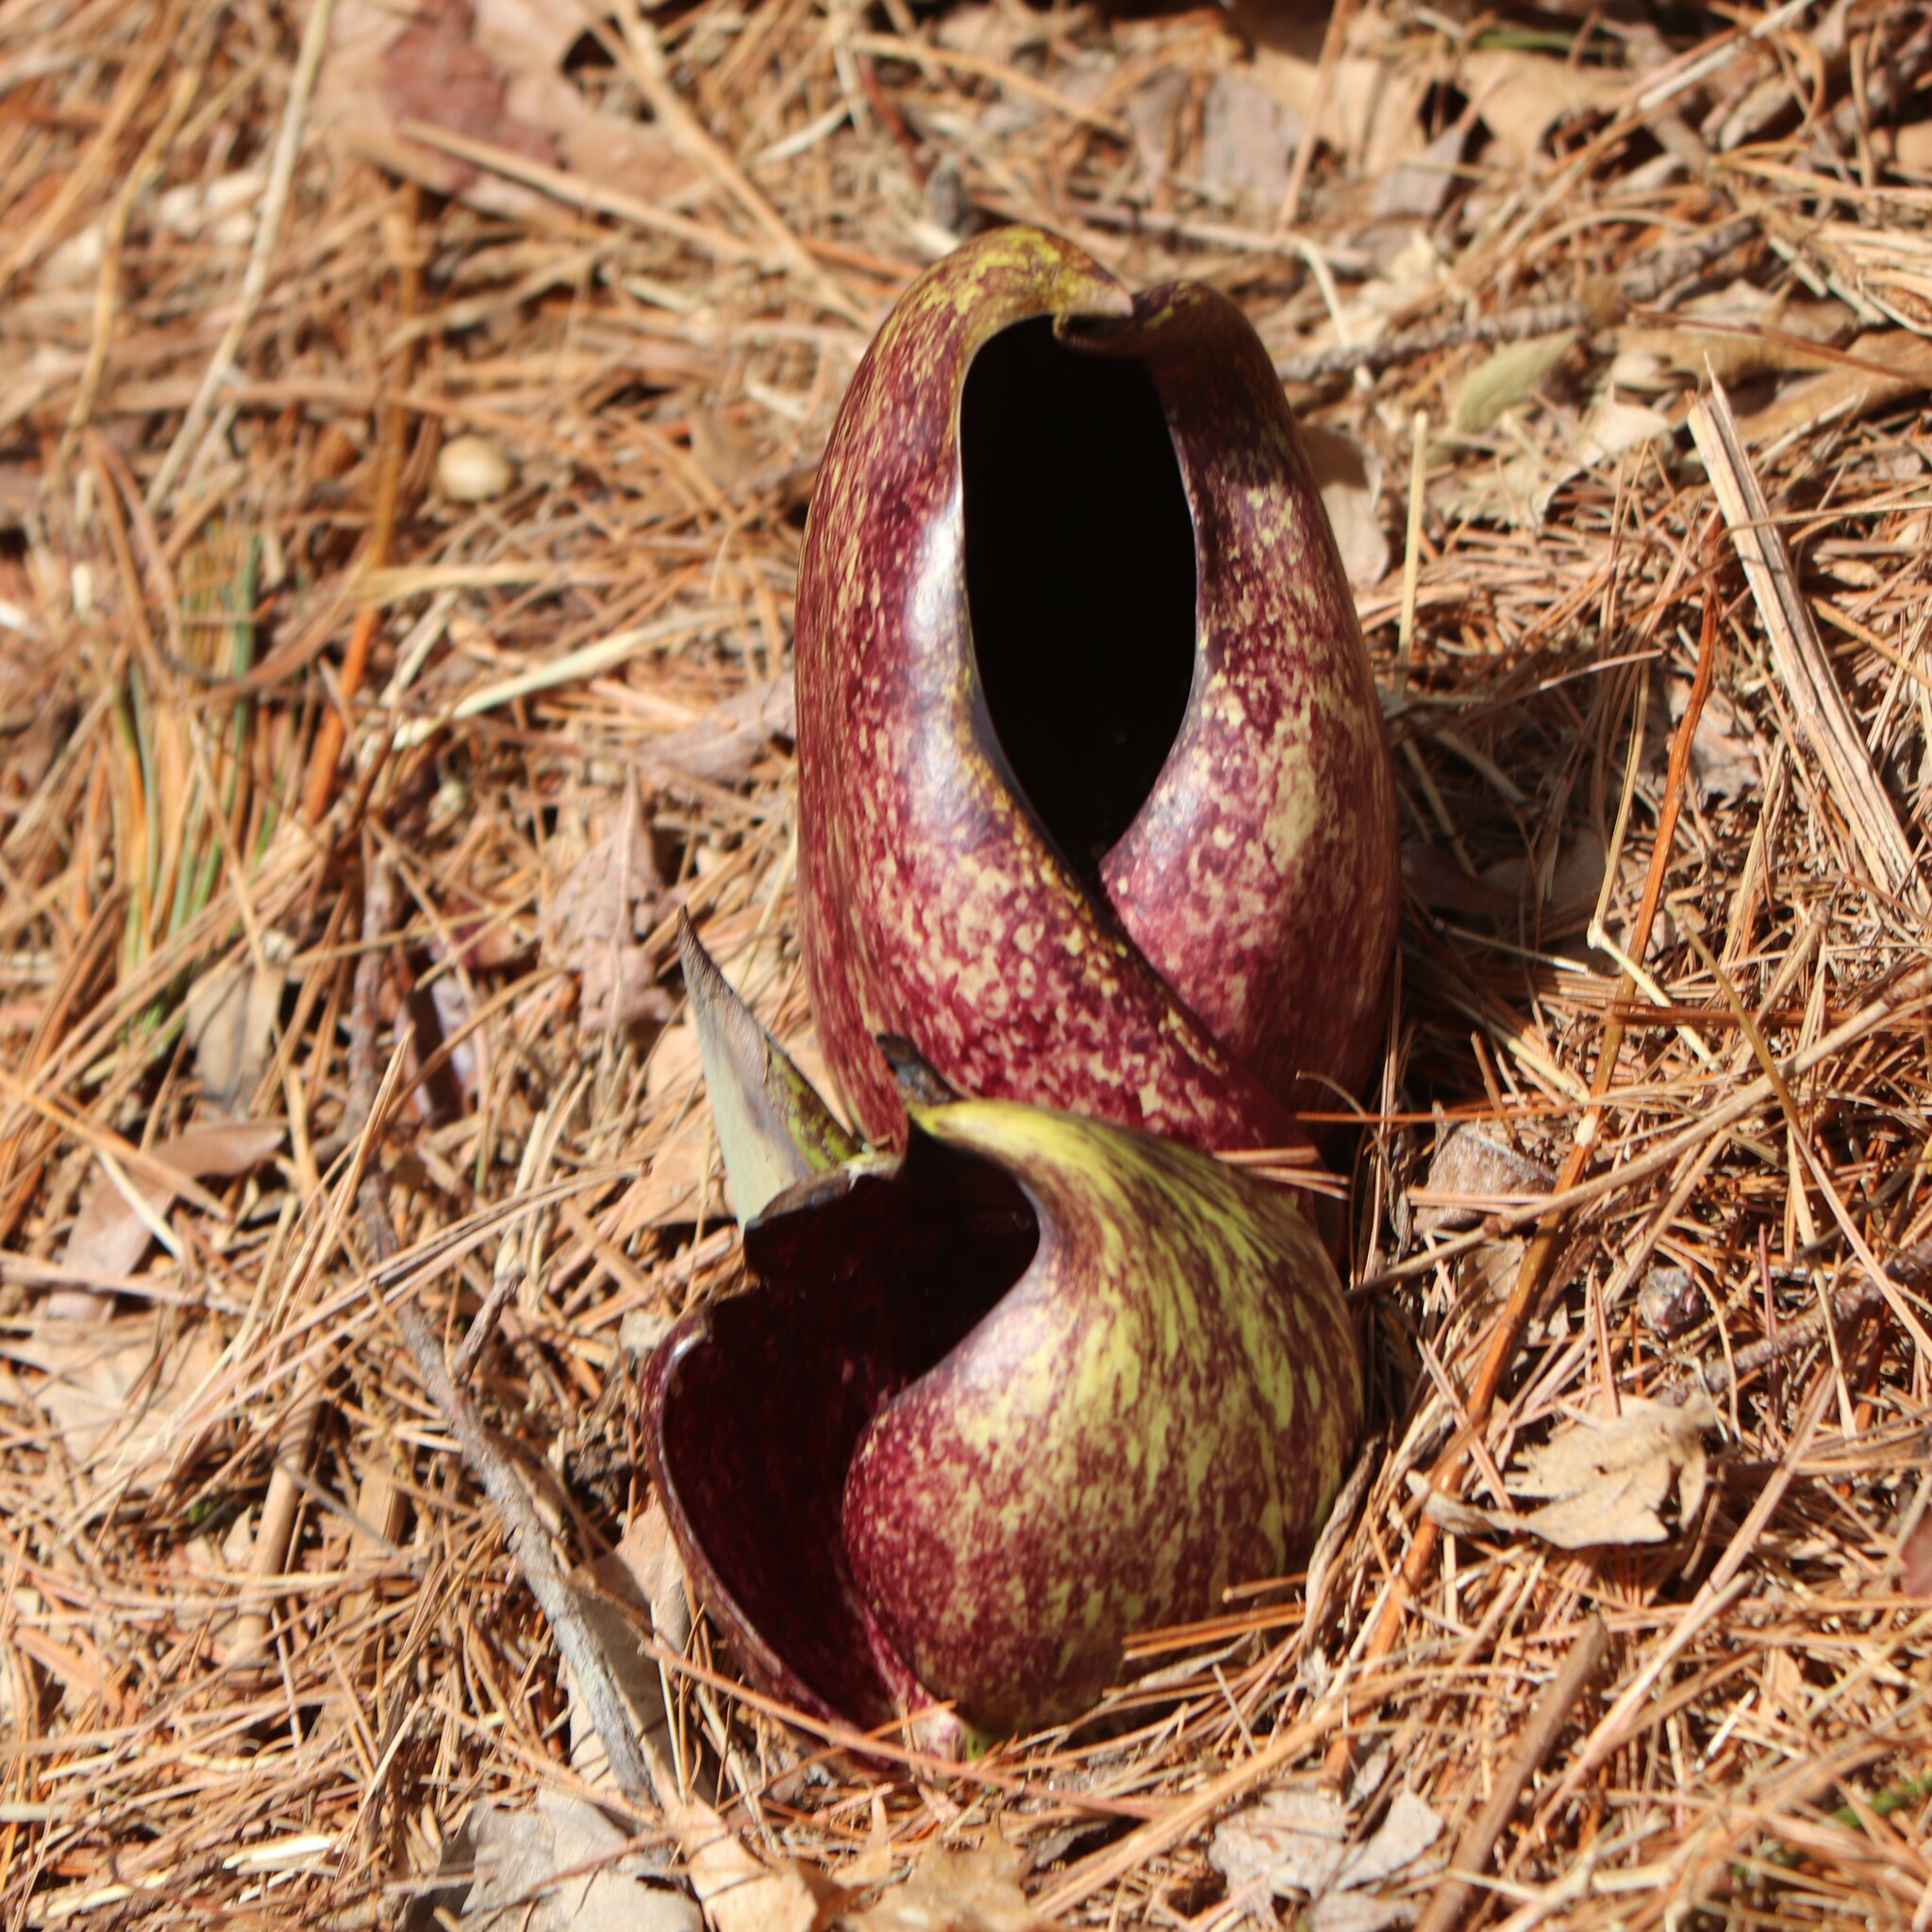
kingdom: Plantae
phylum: Tracheophyta
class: Liliopsida
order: Alismatales
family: Araceae
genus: Symplocarpus
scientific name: Symplocarpus foetidus
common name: Eastern skunk cabbage
